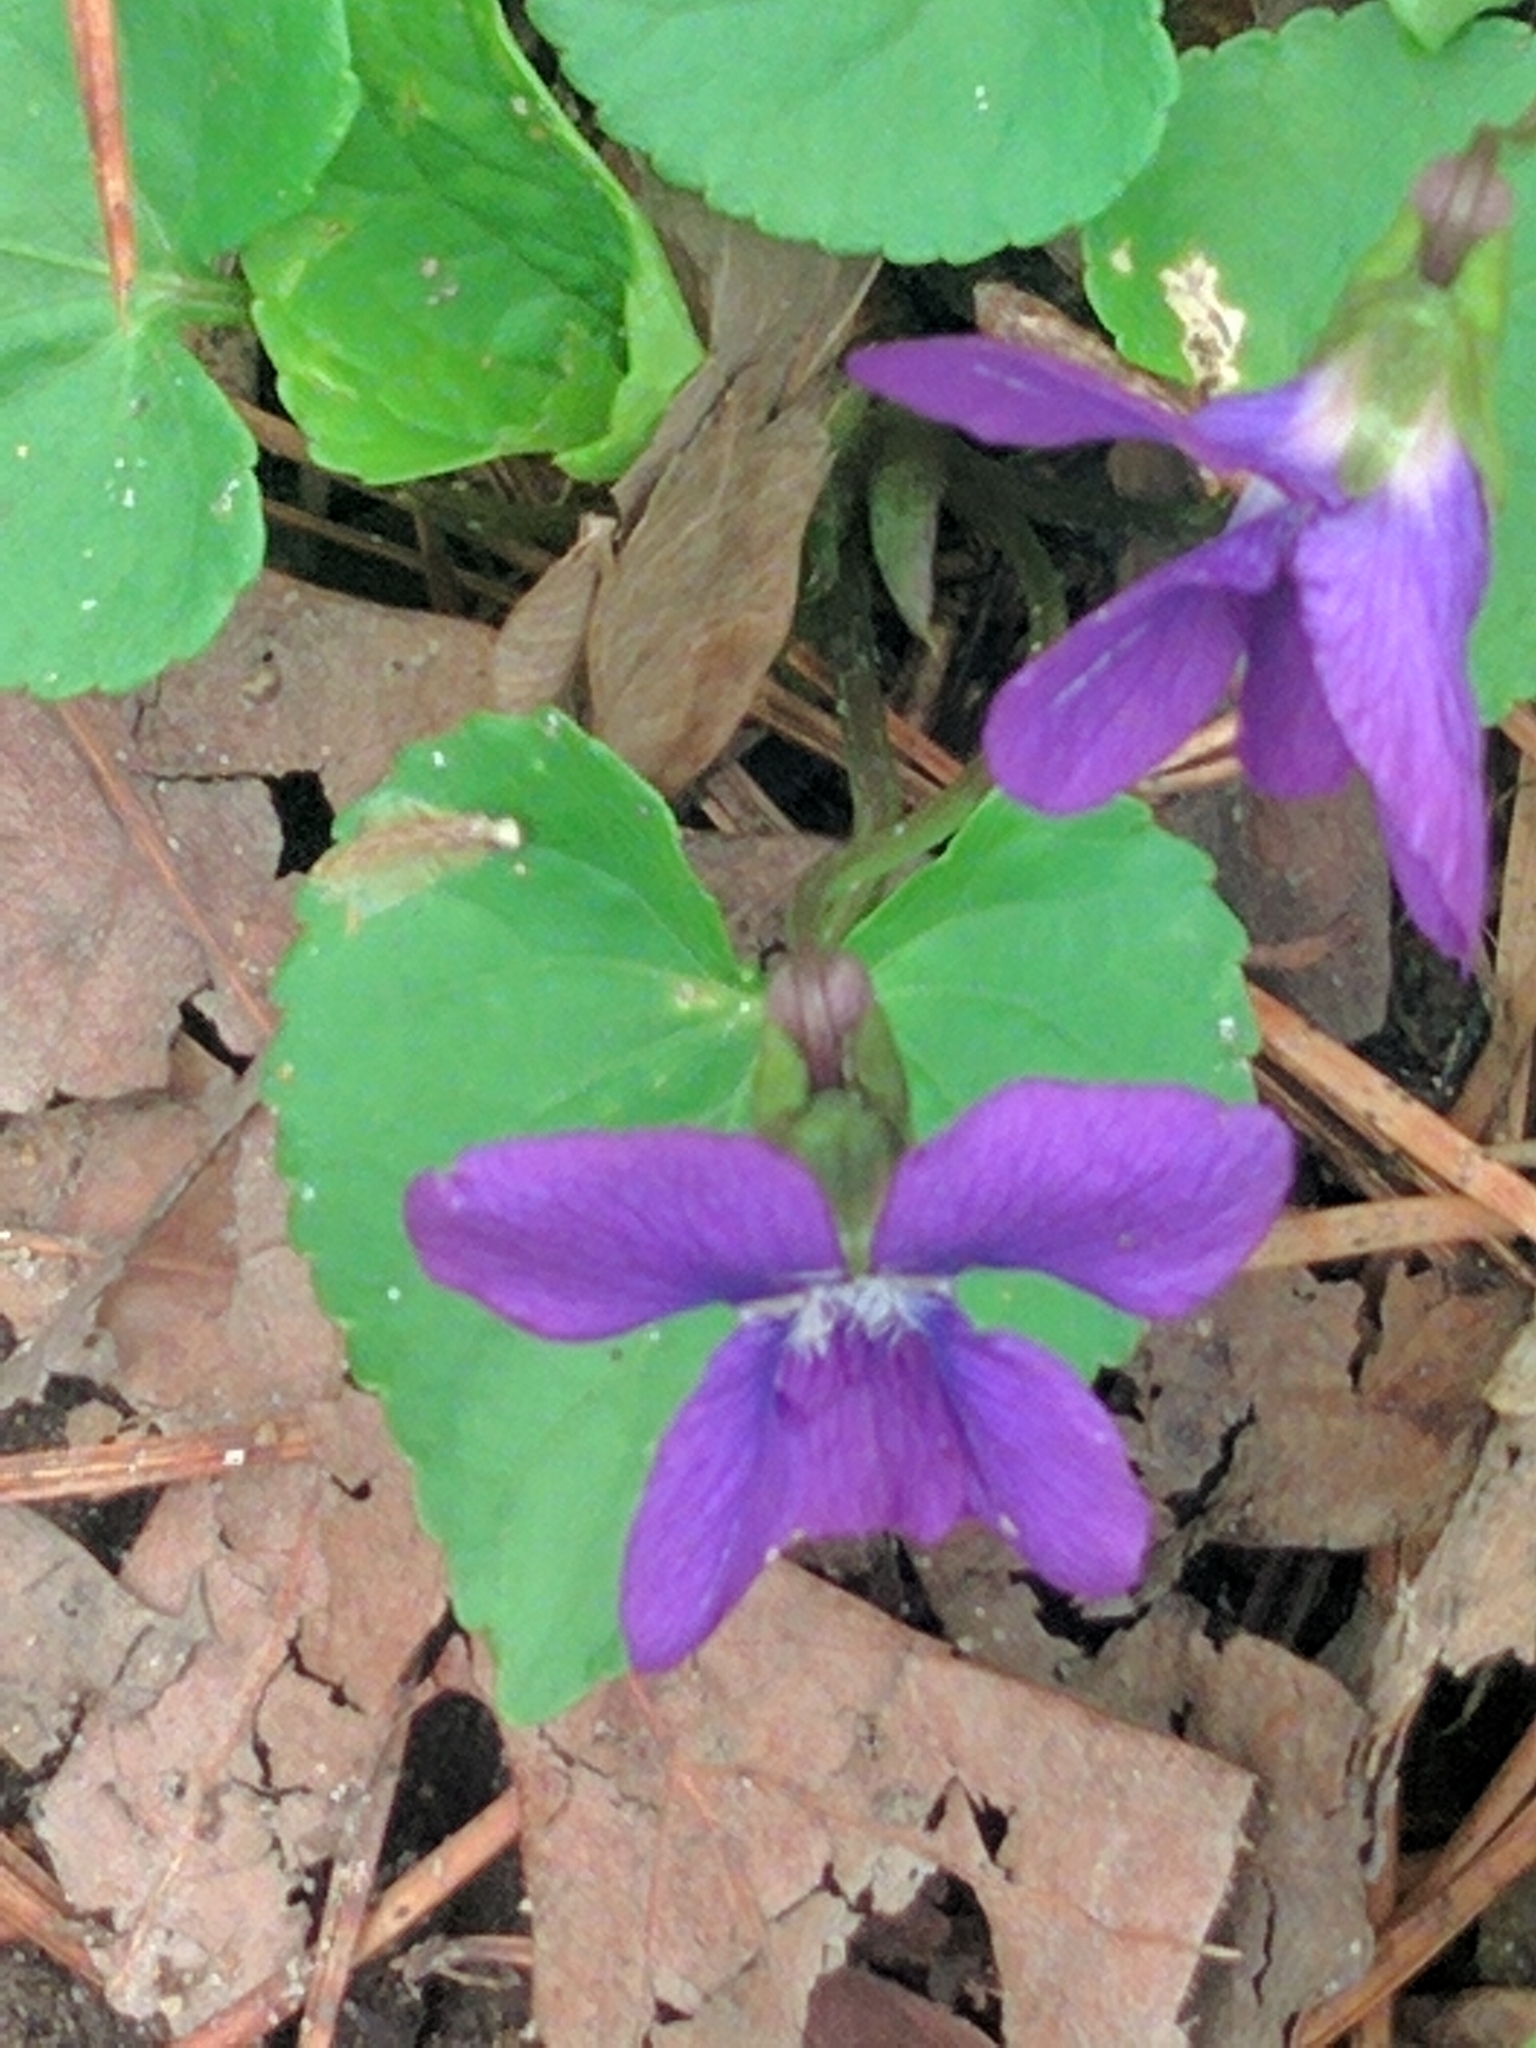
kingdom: Plantae
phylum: Tracheophyta
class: Magnoliopsida
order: Malpighiales
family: Violaceae
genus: Viola
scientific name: Viola sororia
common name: Dooryard violet
